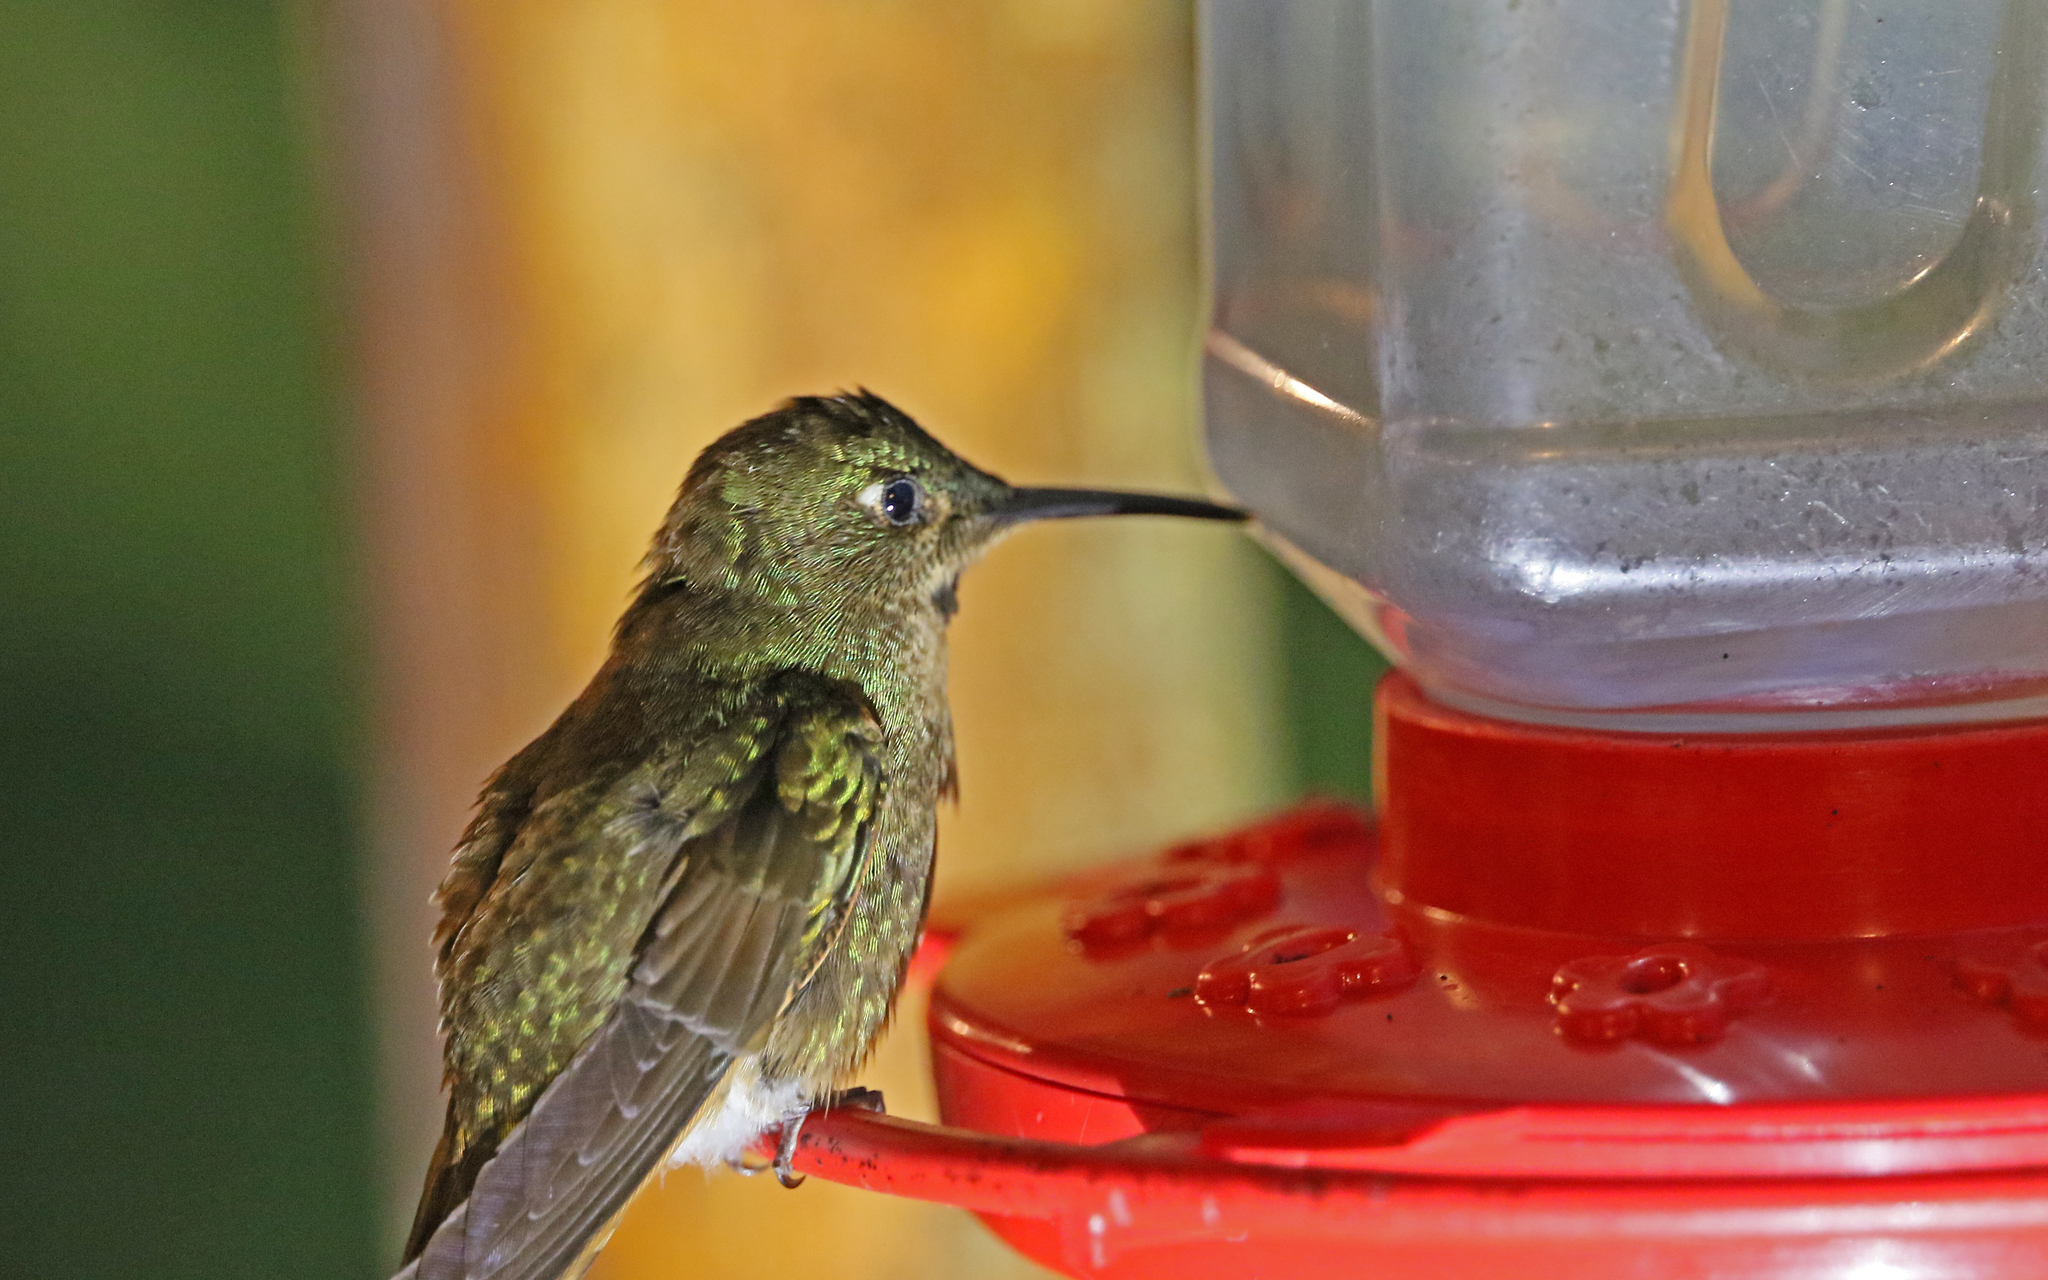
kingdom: Animalia
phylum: Chordata
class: Aves
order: Apodiformes
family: Trochilidae
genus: Heliodoxa
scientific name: Heliodoxa rubinoides
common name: Fawn-breasted brilliant
